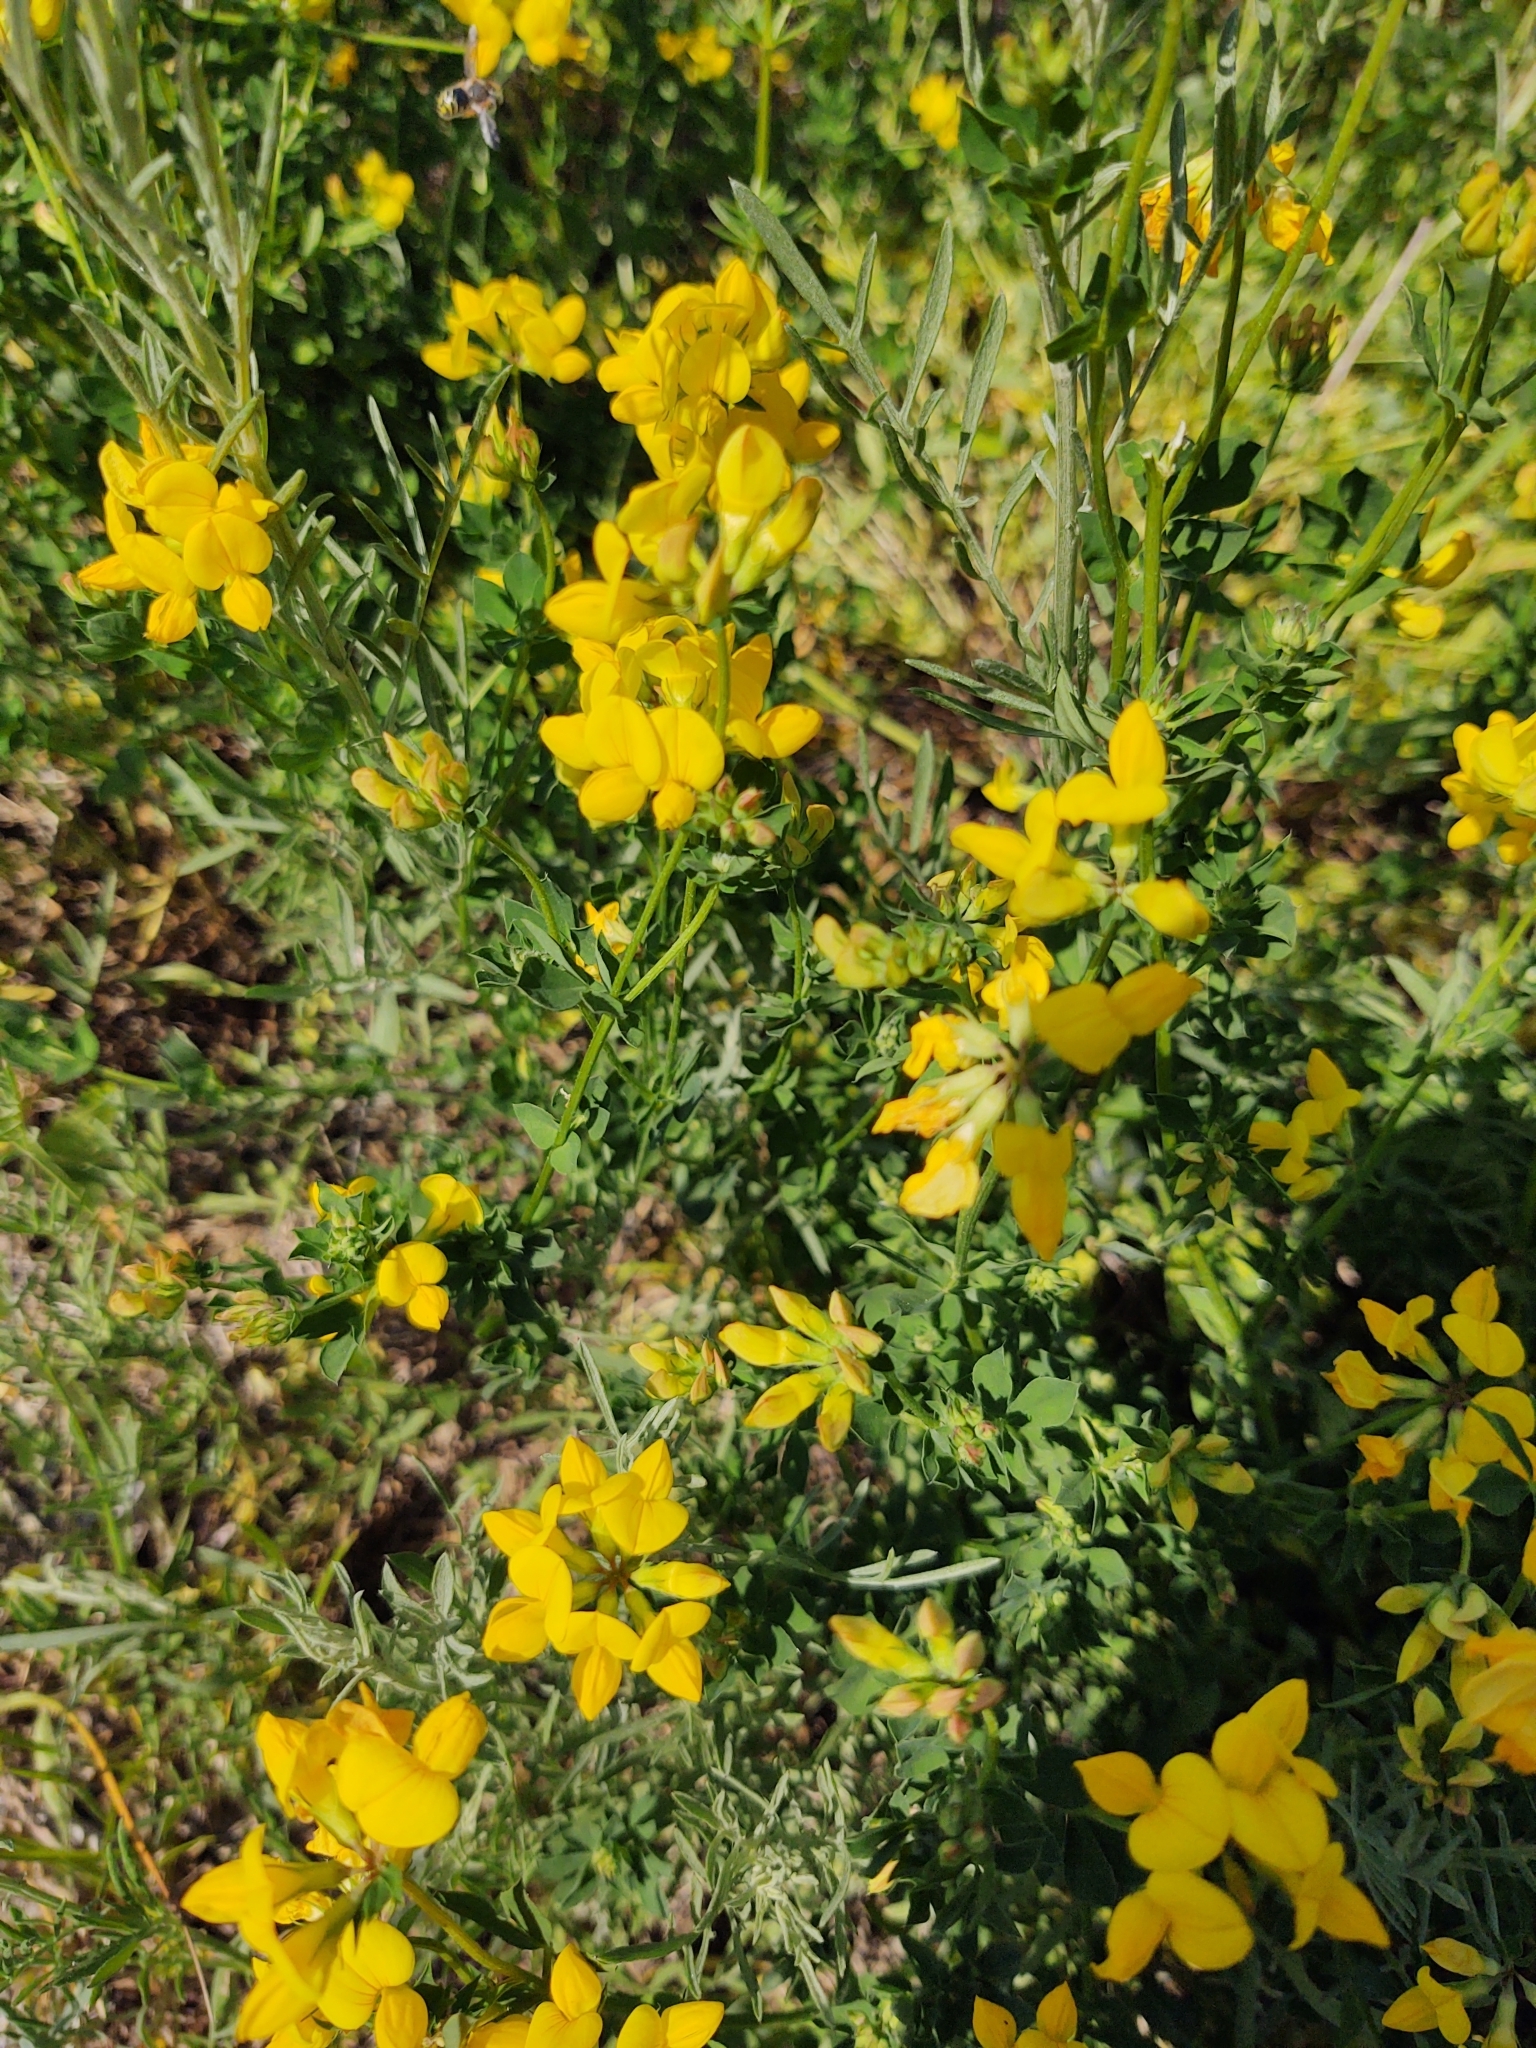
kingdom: Plantae
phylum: Tracheophyta
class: Magnoliopsida
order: Fabales
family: Fabaceae
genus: Lotus
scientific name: Lotus corniculatus
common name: Common bird's-foot-trefoil
